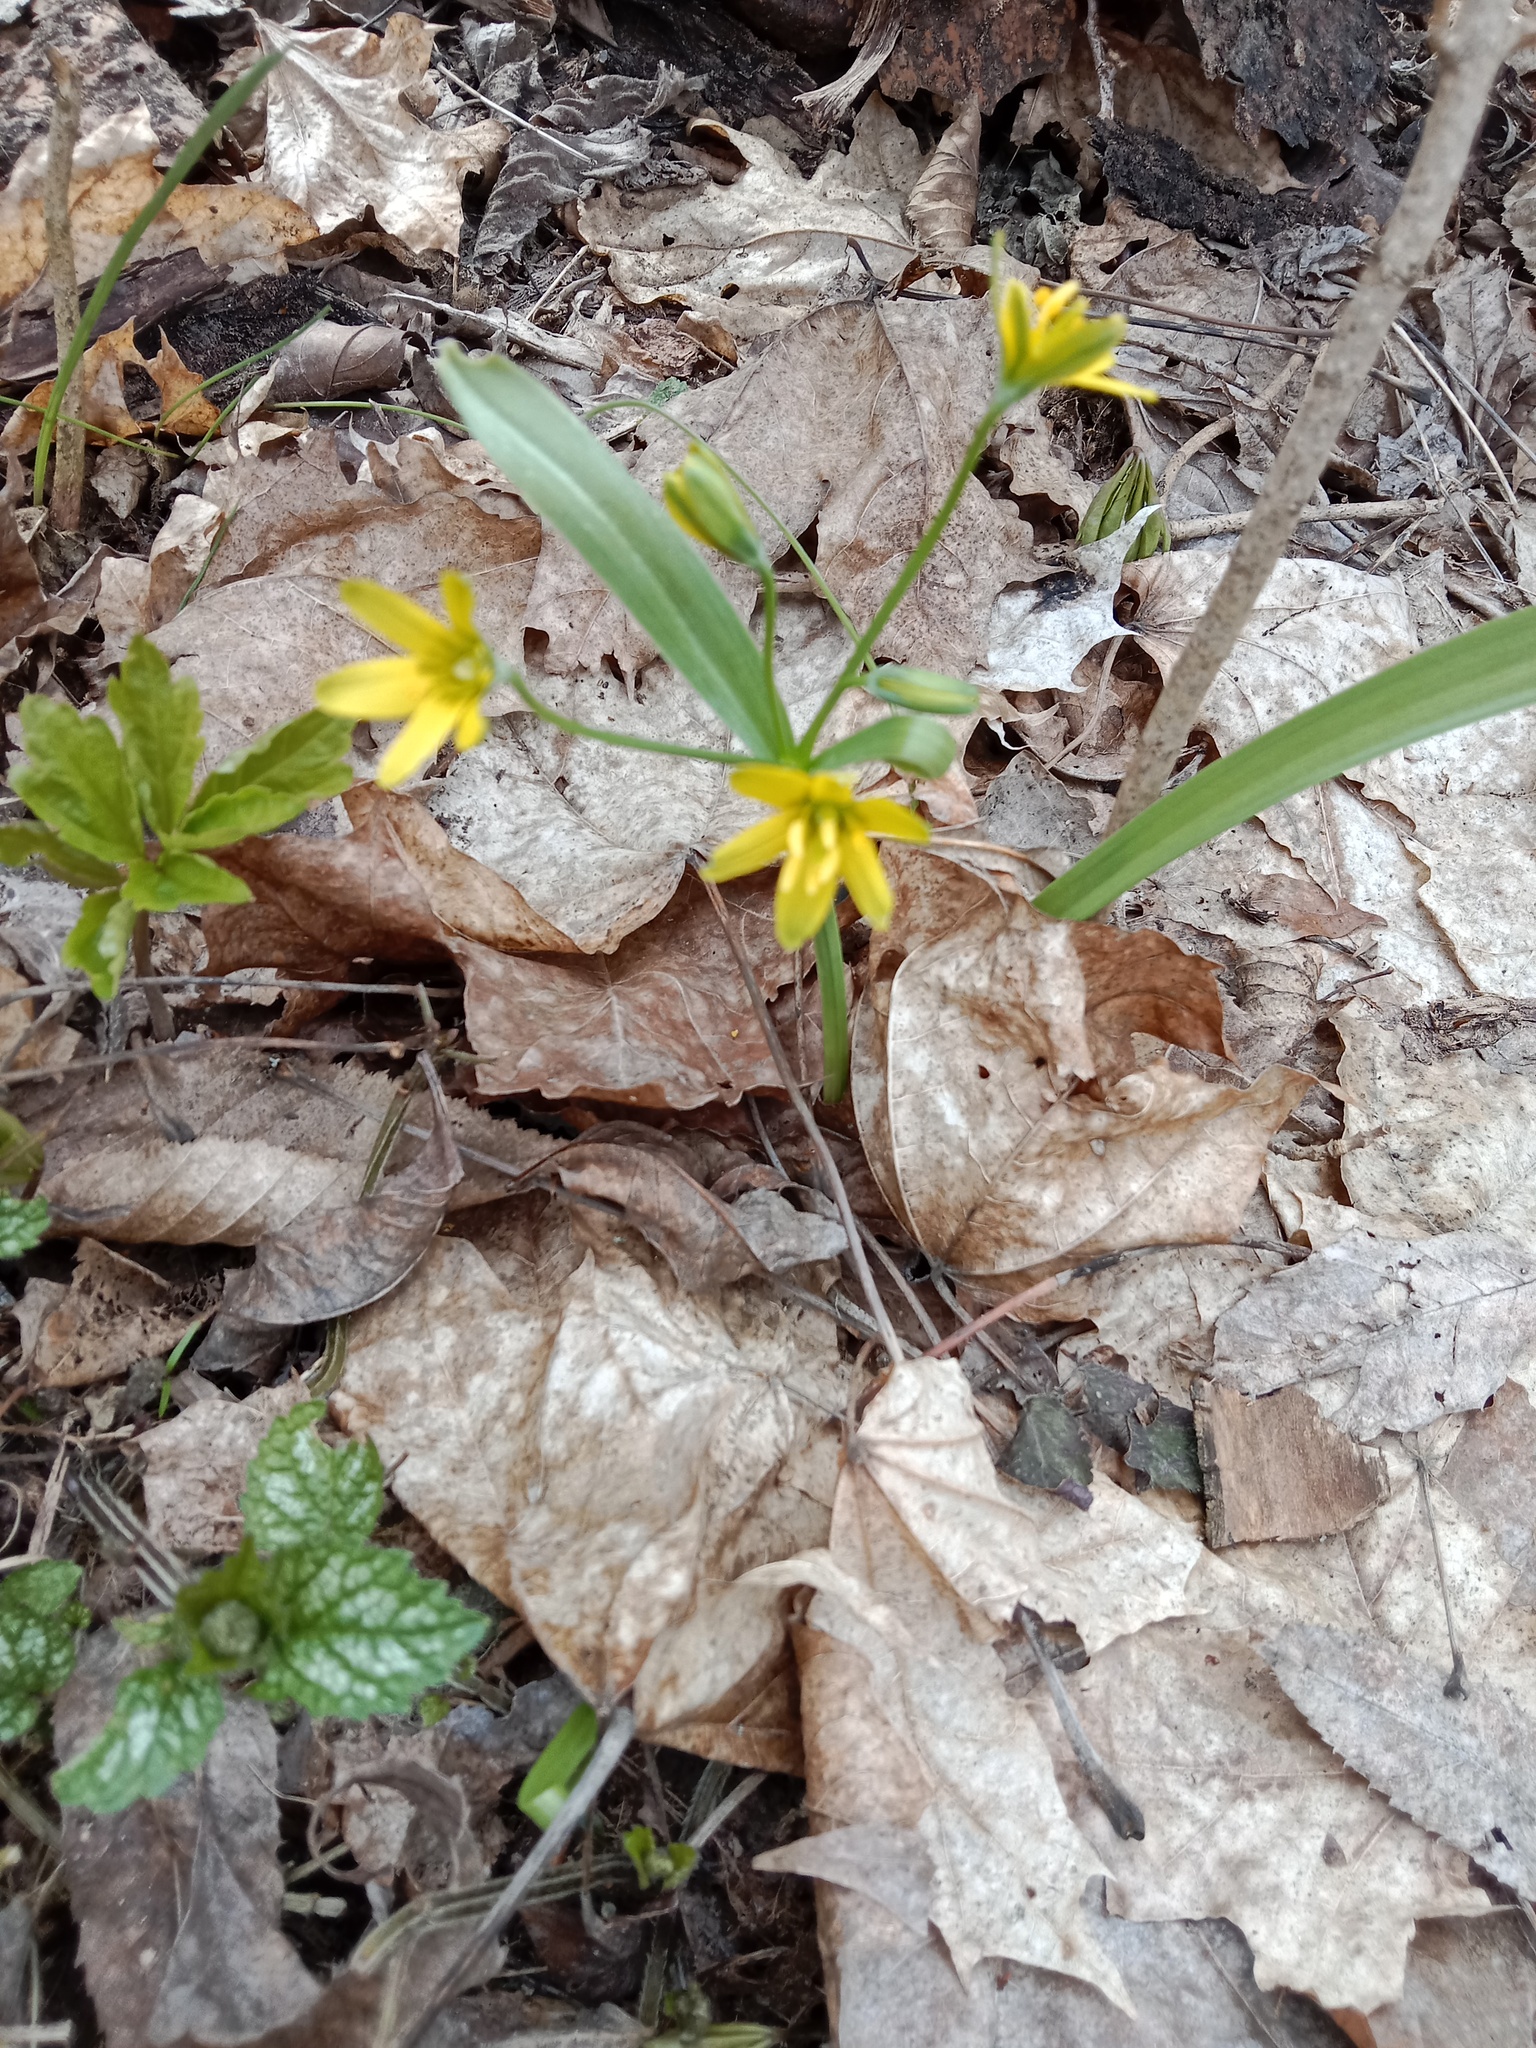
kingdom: Plantae
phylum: Tracheophyta
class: Liliopsida
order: Liliales
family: Liliaceae
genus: Gagea
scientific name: Gagea lutea
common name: Yellow star-of-bethlehem
